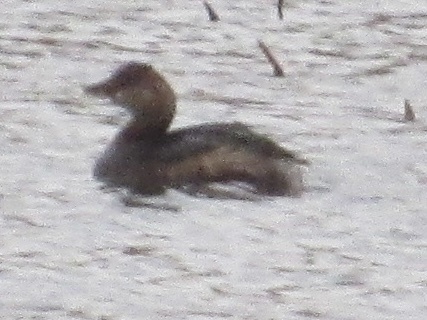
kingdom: Animalia
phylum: Chordata
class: Aves
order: Podicipediformes
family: Podicipedidae
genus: Podilymbus
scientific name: Podilymbus podiceps
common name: Pied-billed grebe
